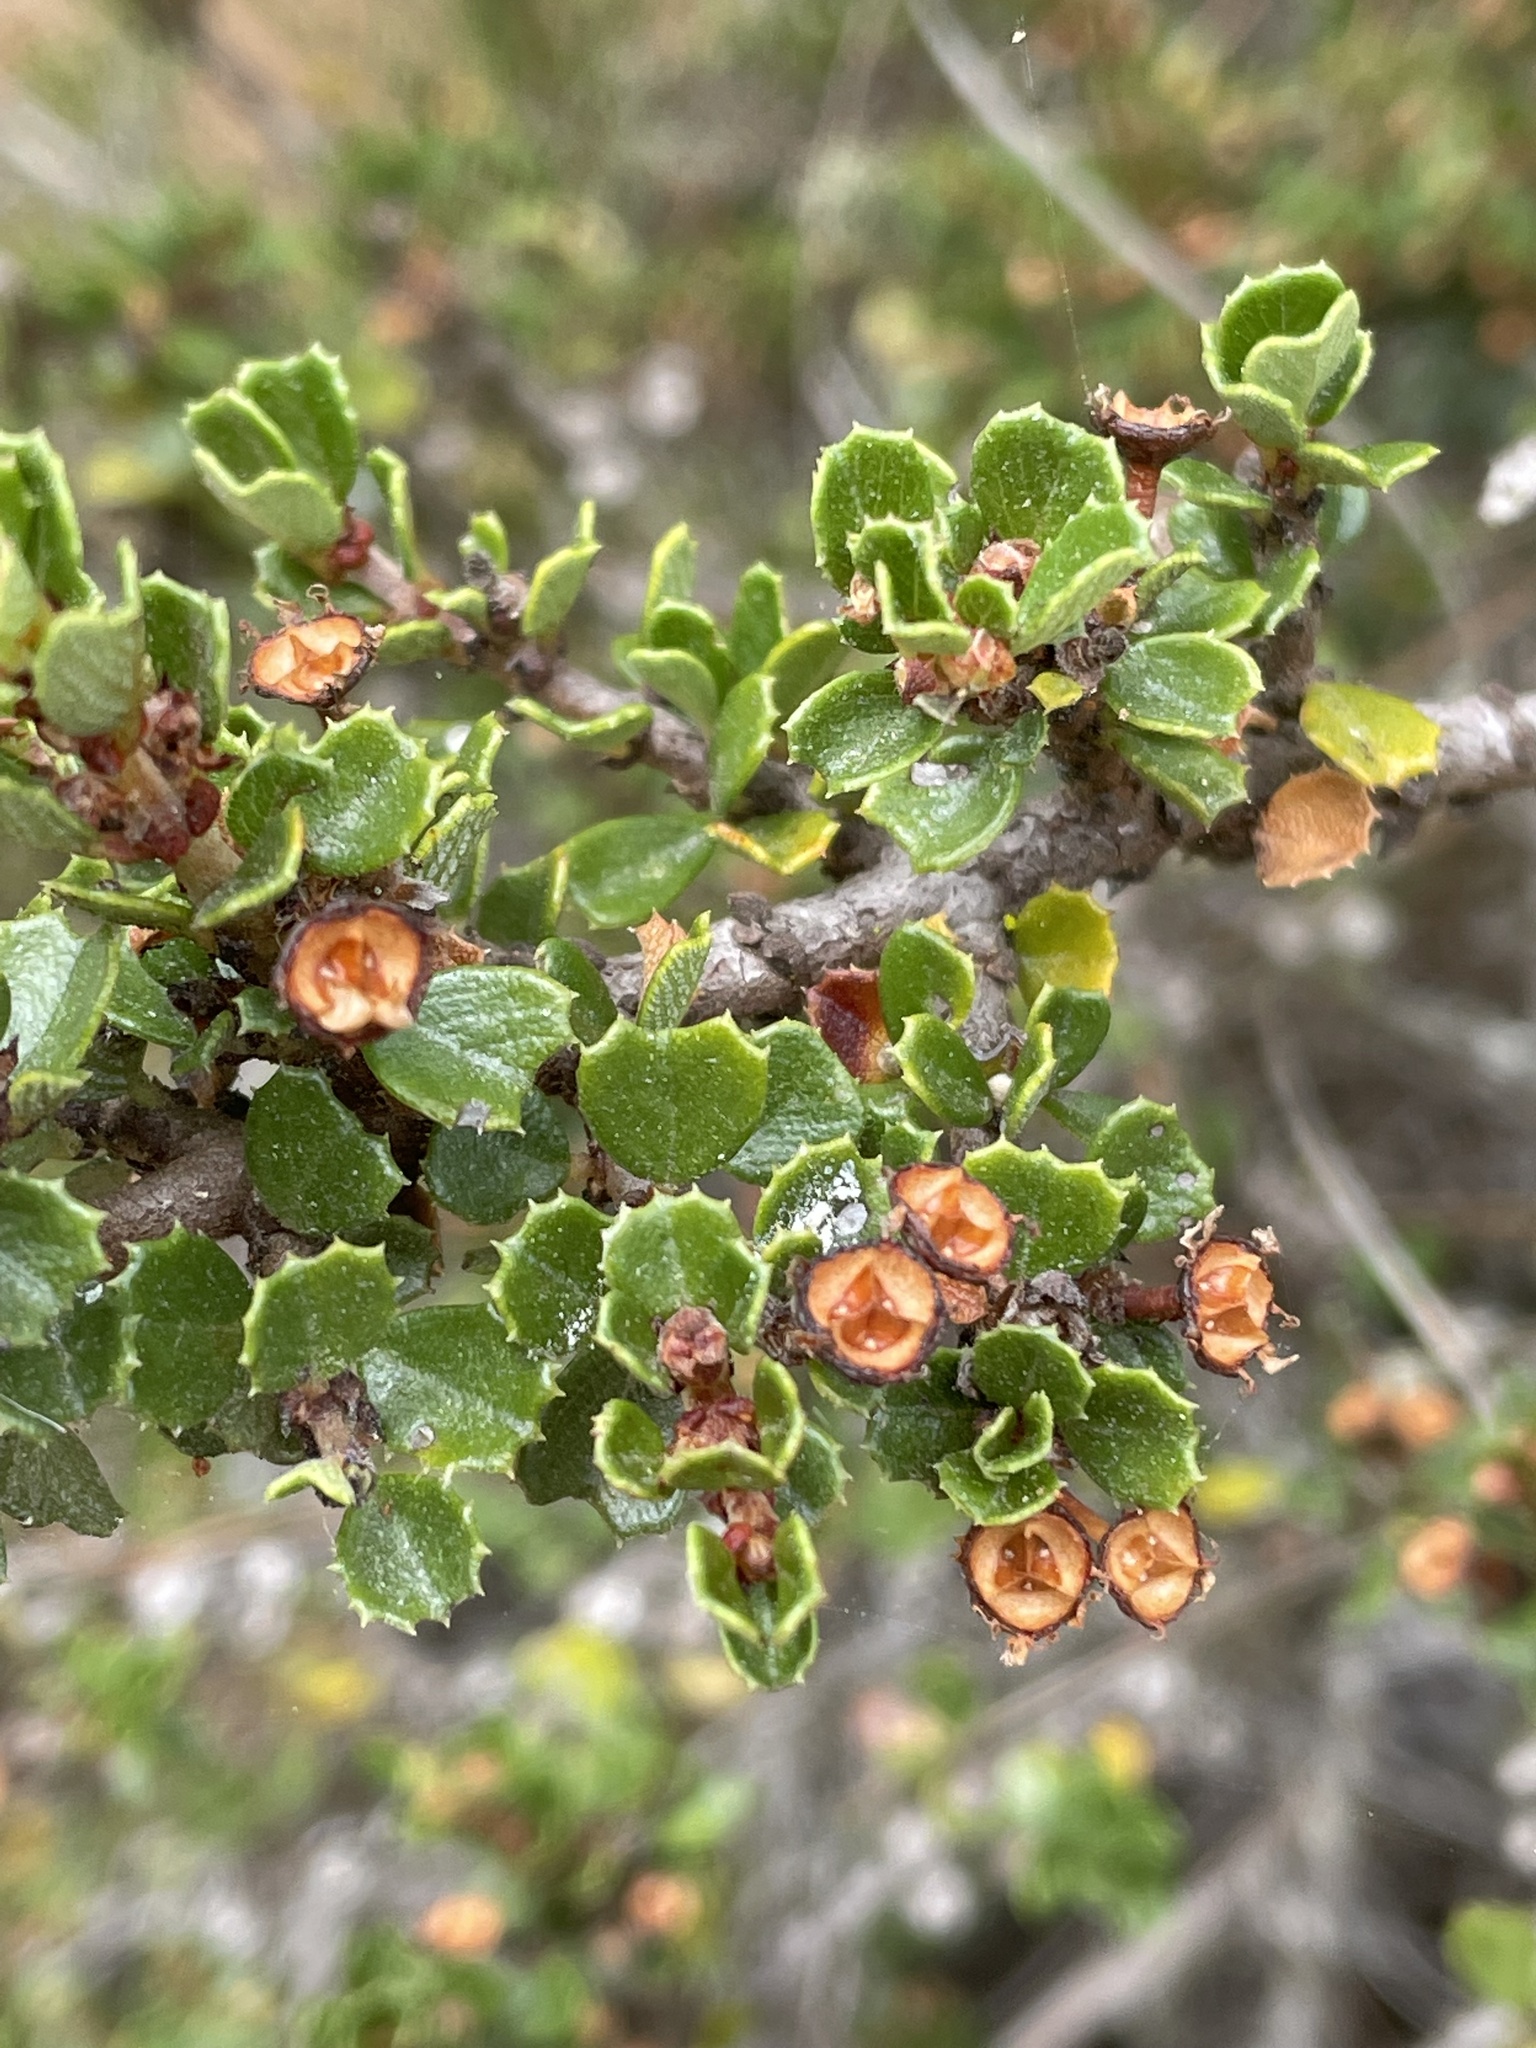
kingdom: Plantae
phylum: Tracheophyta
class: Magnoliopsida
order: Rosales
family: Rhamnaceae
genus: Ceanothus
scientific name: Ceanothus cuneatus
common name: Cuneate ceanothus
